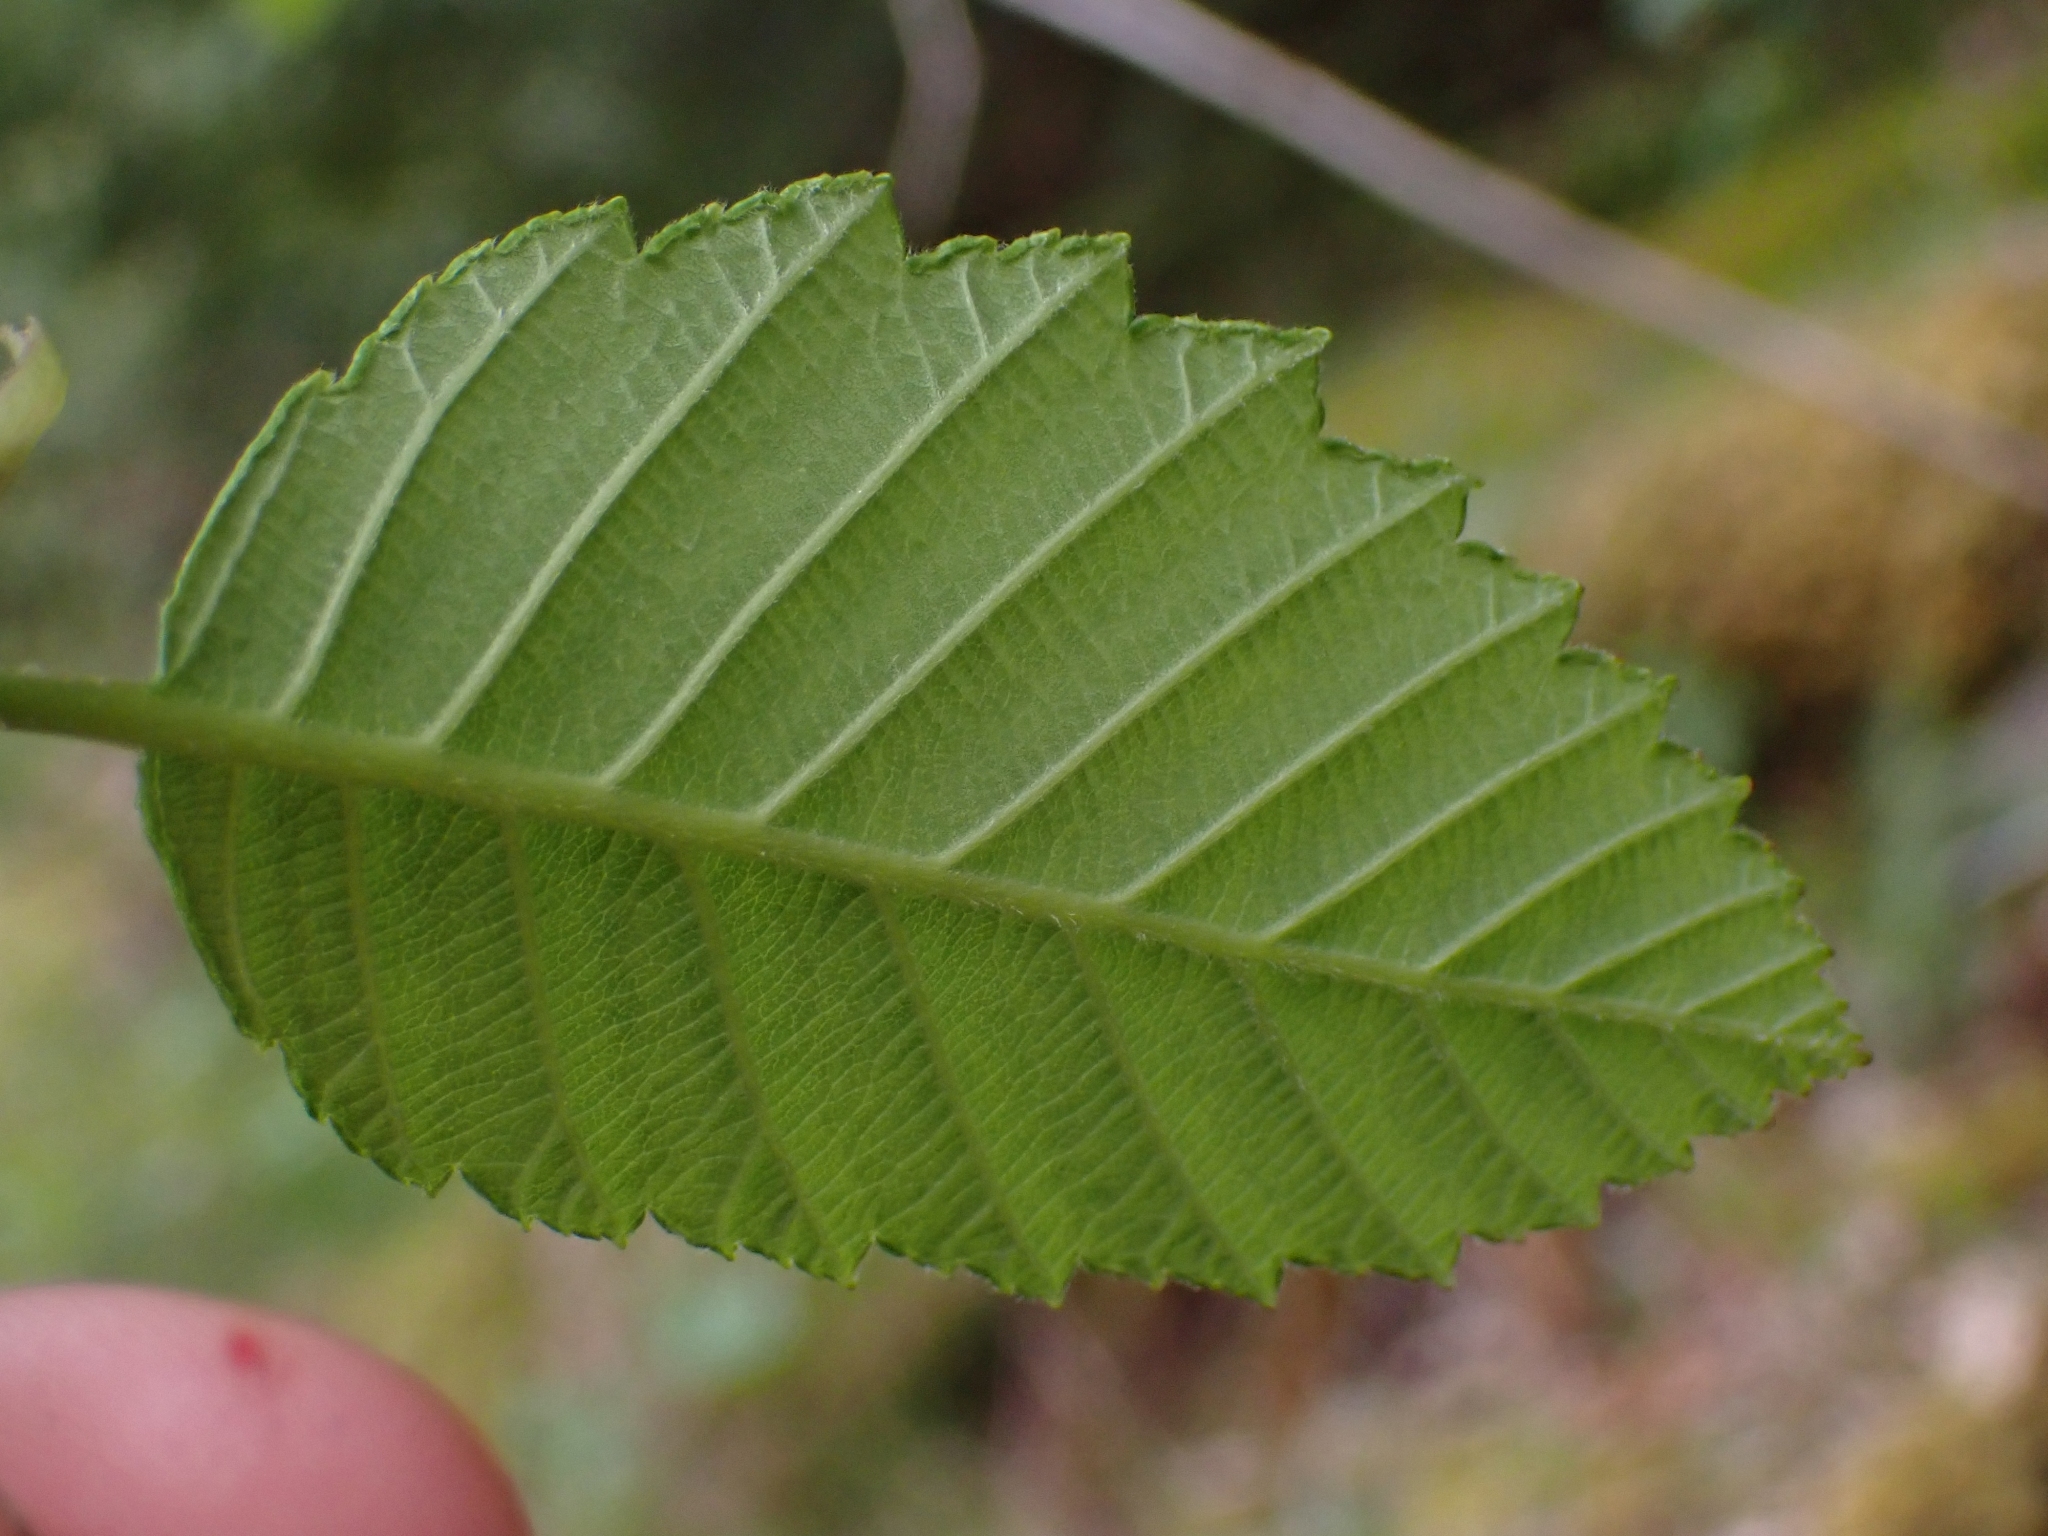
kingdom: Plantae
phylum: Tracheophyta
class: Magnoliopsida
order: Fagales
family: Betulaceae
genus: Alnus
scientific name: Alnus rubra
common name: Red alder
